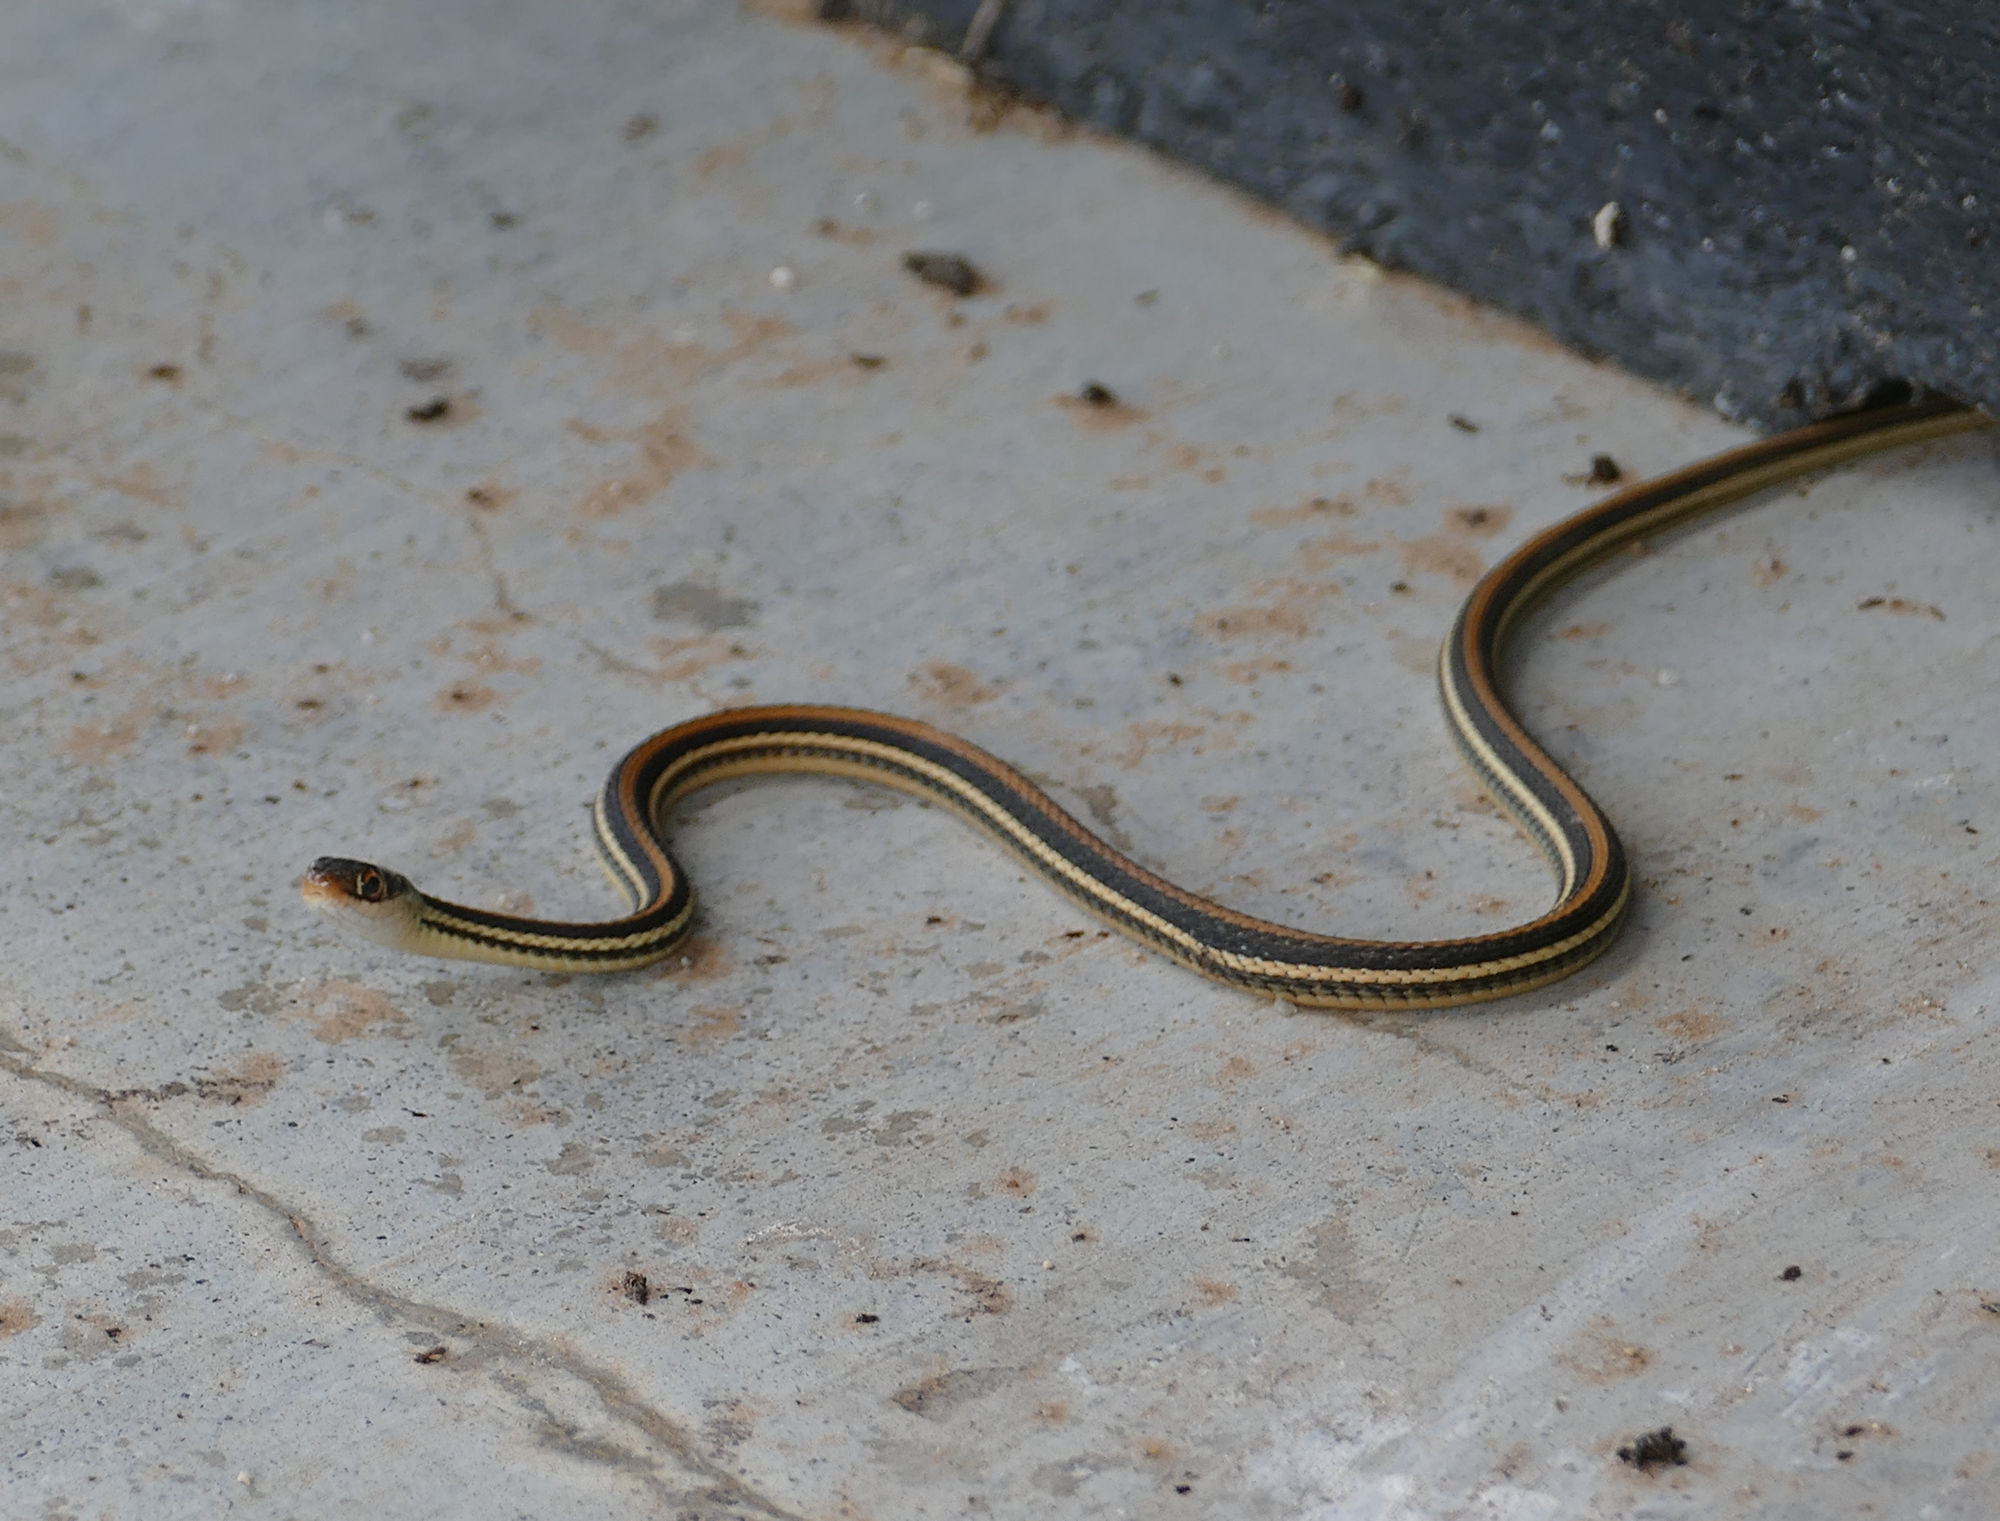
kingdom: Animalia
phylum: Chordata
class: Squamata
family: Colubridae
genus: Thamnophis
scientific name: Thamnophis proximus
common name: Western ribbon snake
